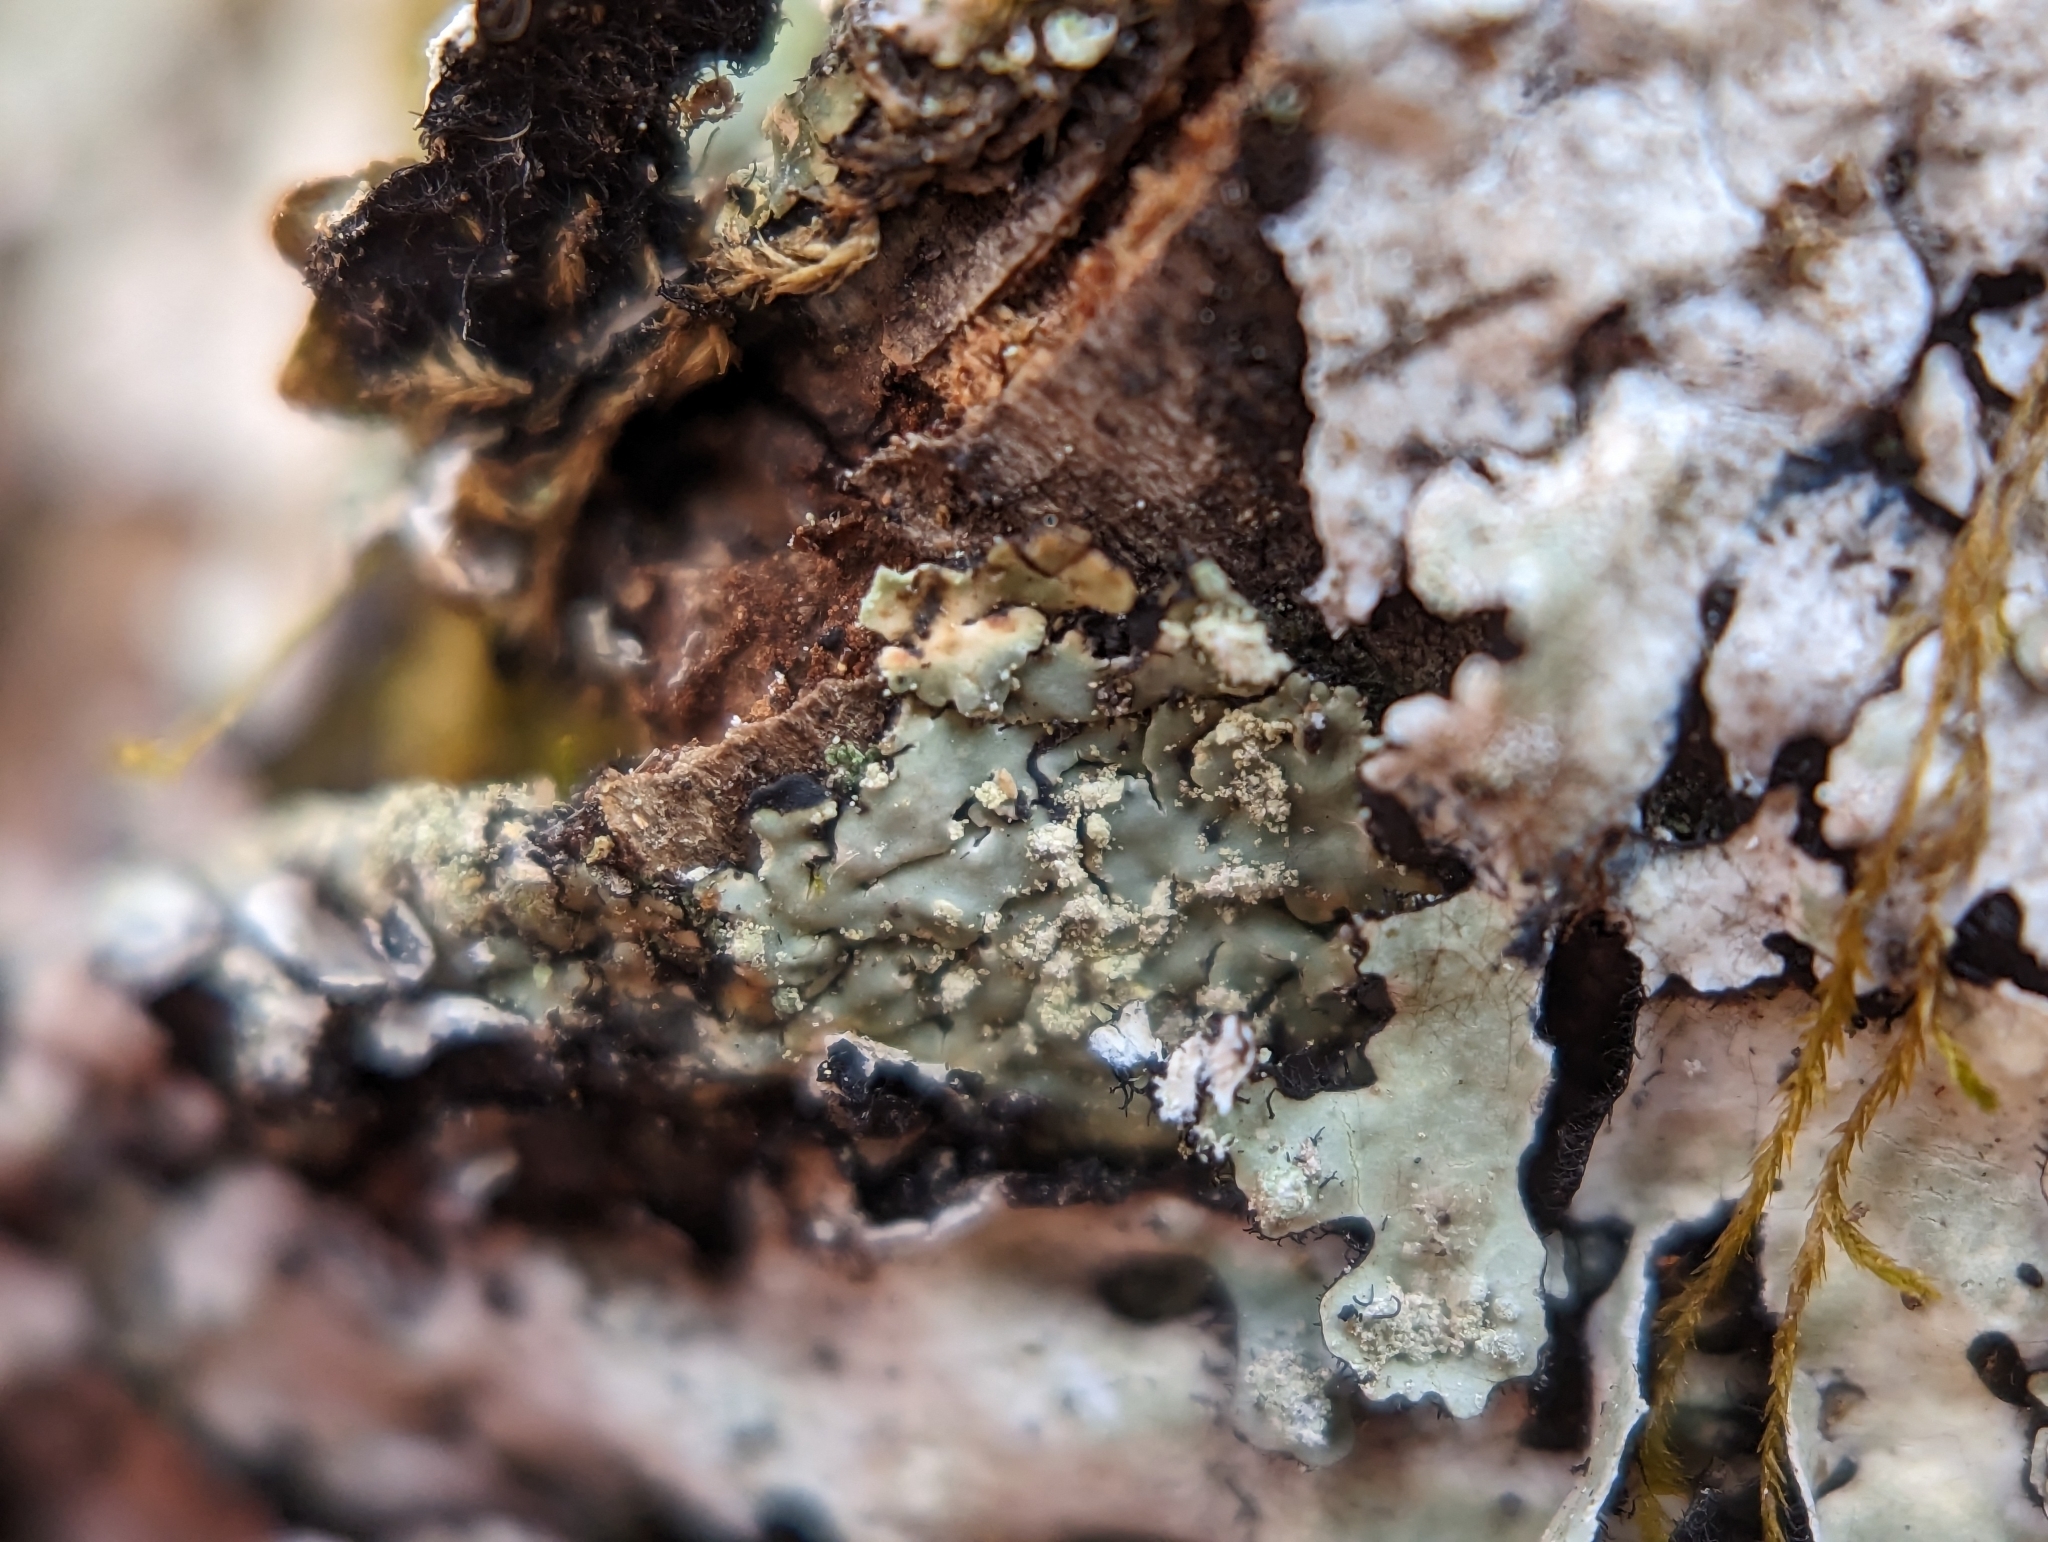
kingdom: Fungi
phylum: Ascomycota
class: Lecanoromycetes
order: Caliciales
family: Caliciaceae
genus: Pyxine
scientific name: Pyxine subcinerea
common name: Mustard lichen
